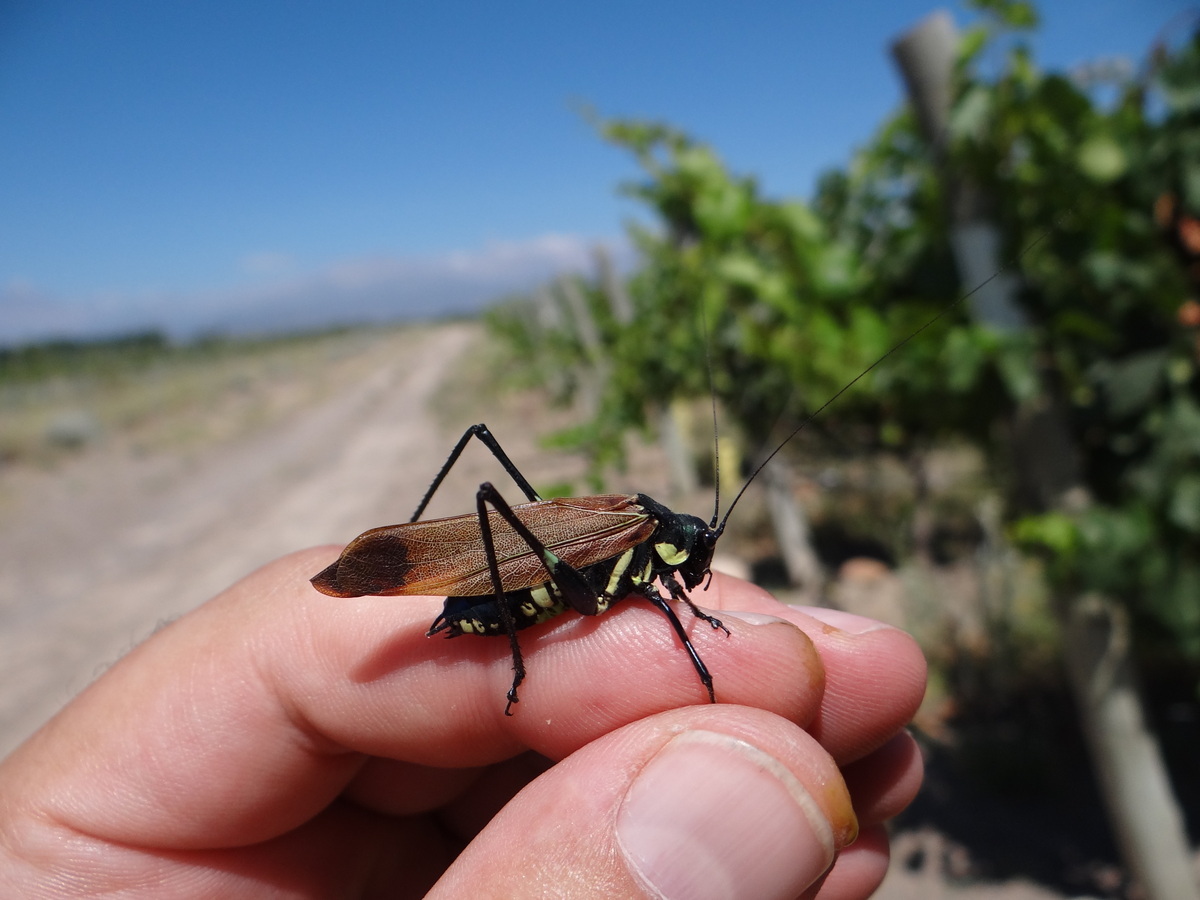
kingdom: Animalia
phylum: Arthropoda
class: Insecta
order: Orthoptera
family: Tettigoniidae
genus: Scaphura
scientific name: Scaphura elegans
